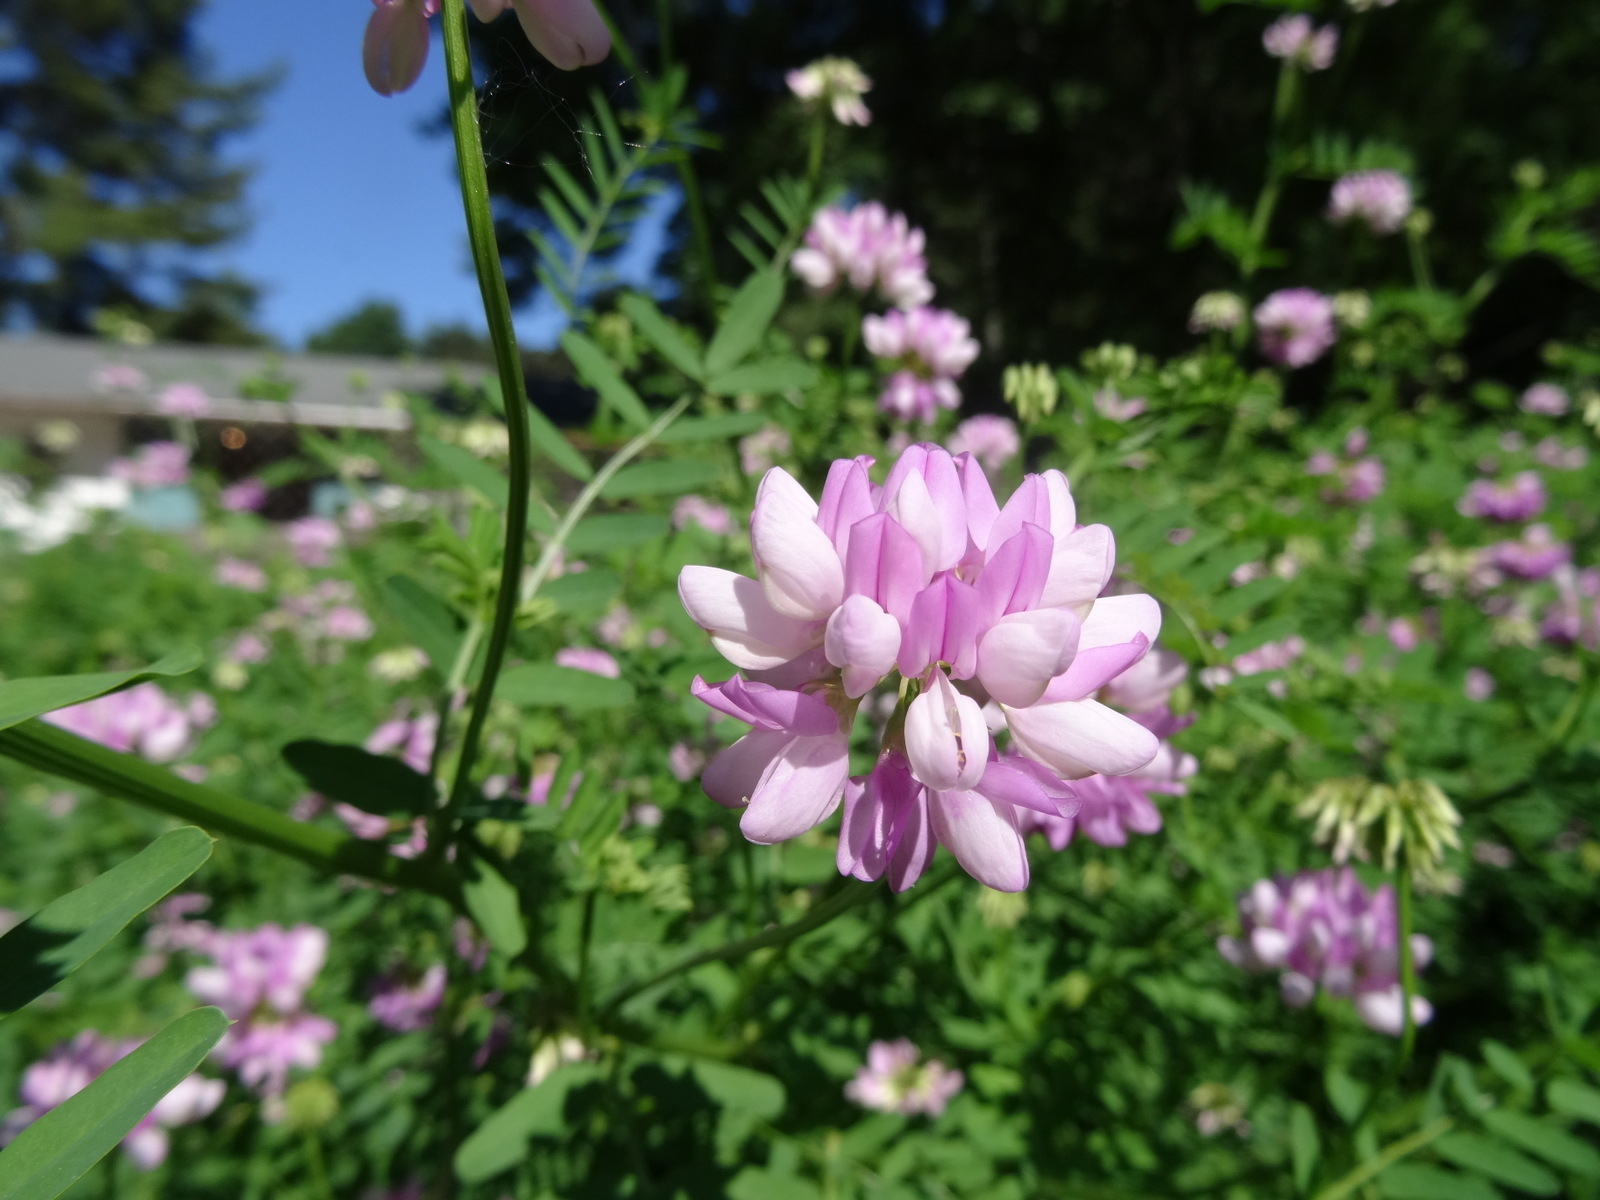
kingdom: Plantae
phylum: Tracheophyta
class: Magnoliopsida
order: Fabales
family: Fabaceae
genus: Coronilla
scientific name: Coronilla varia
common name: Crownvetch
